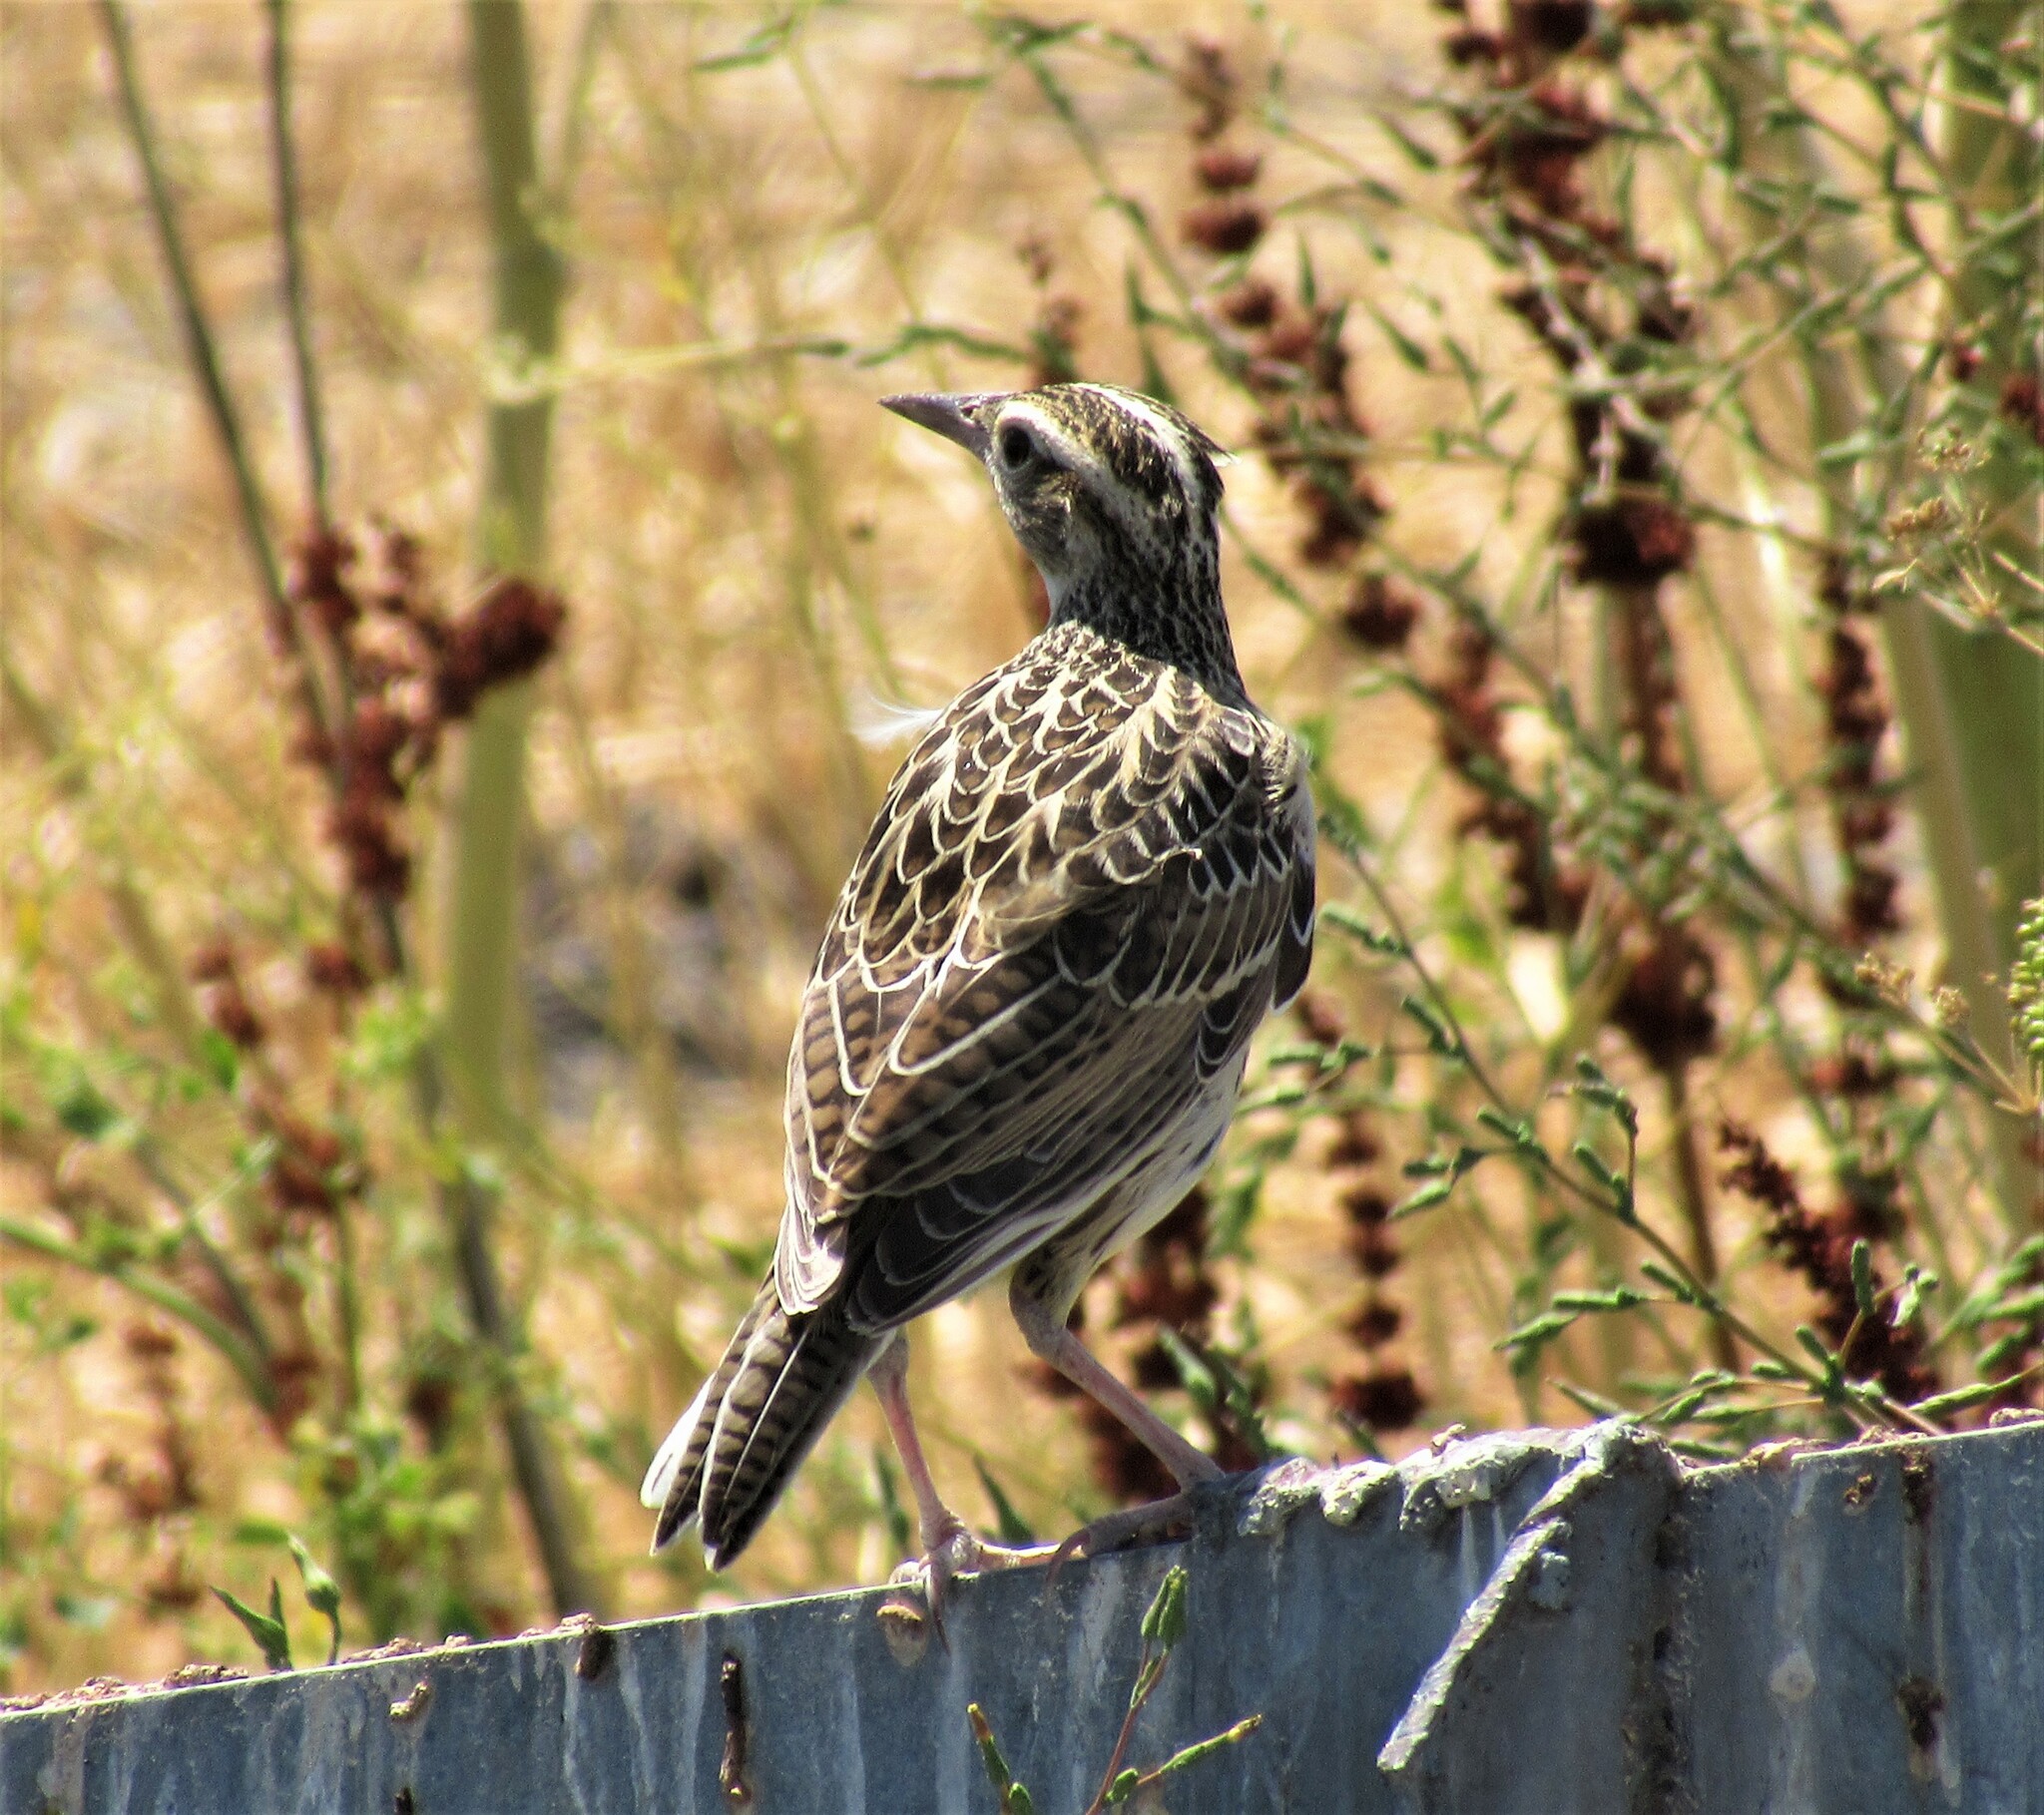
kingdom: Animalia
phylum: Chordata
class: Aves
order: Passeriformes
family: Icteridae
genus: Sturnella
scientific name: Sturnella neglecta
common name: Western meadowlark
